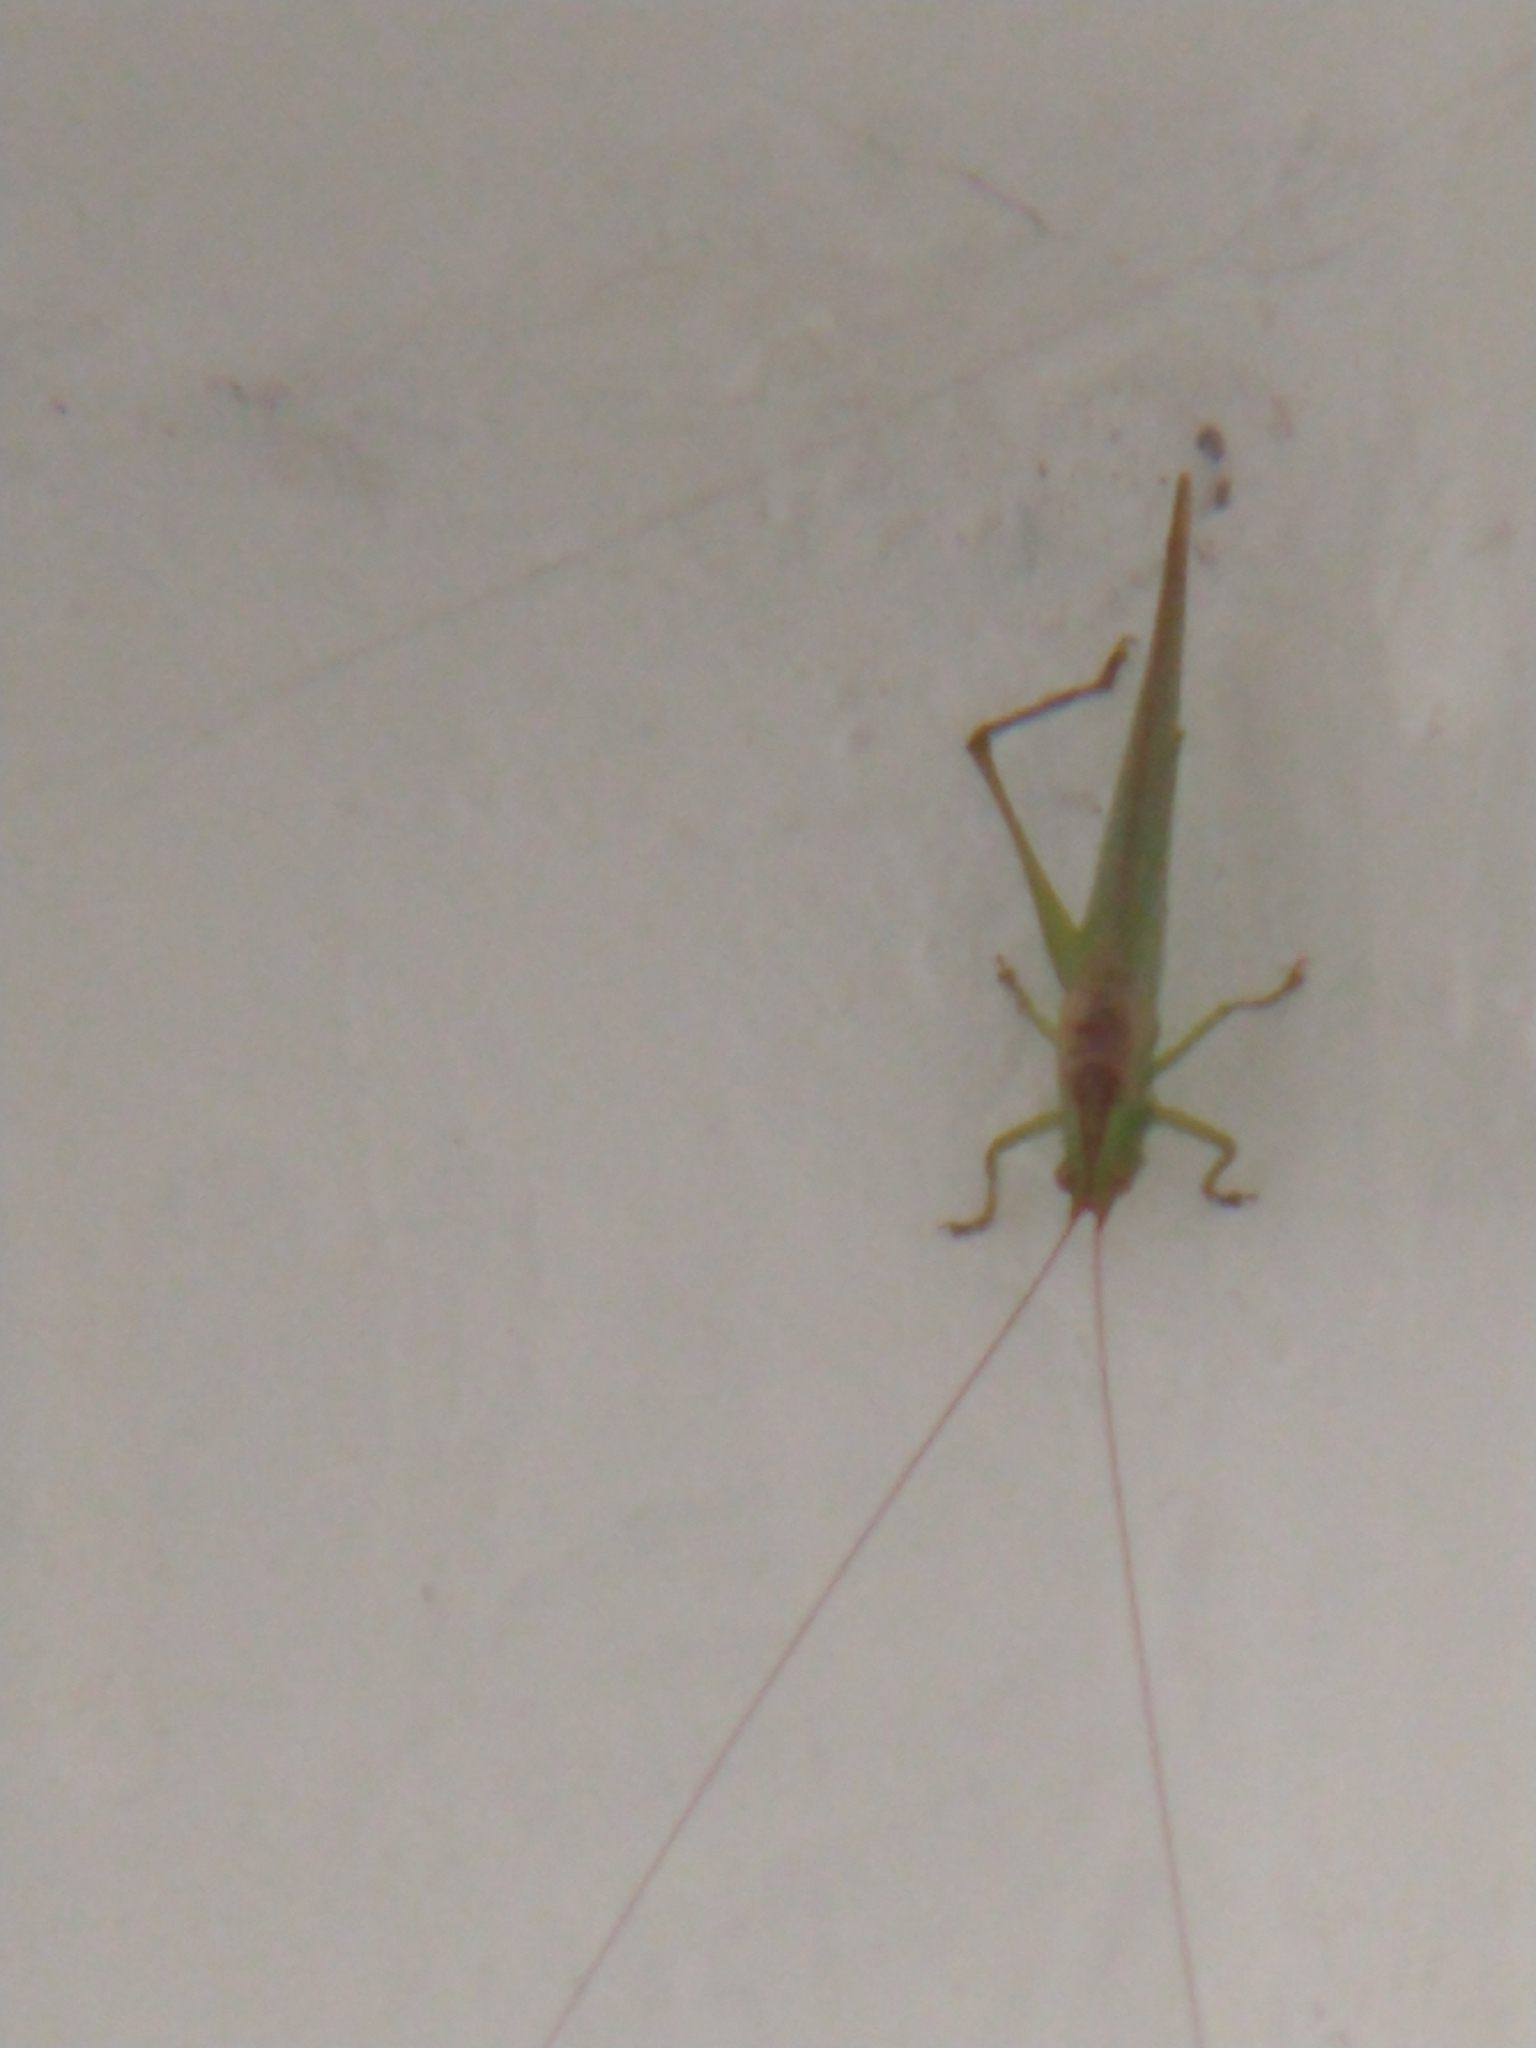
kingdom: Animalia
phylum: Arthropoda
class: Insecta
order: Orthoptera
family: Tettigoniidae
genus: Conocephalus
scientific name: Conocephalus longipes
